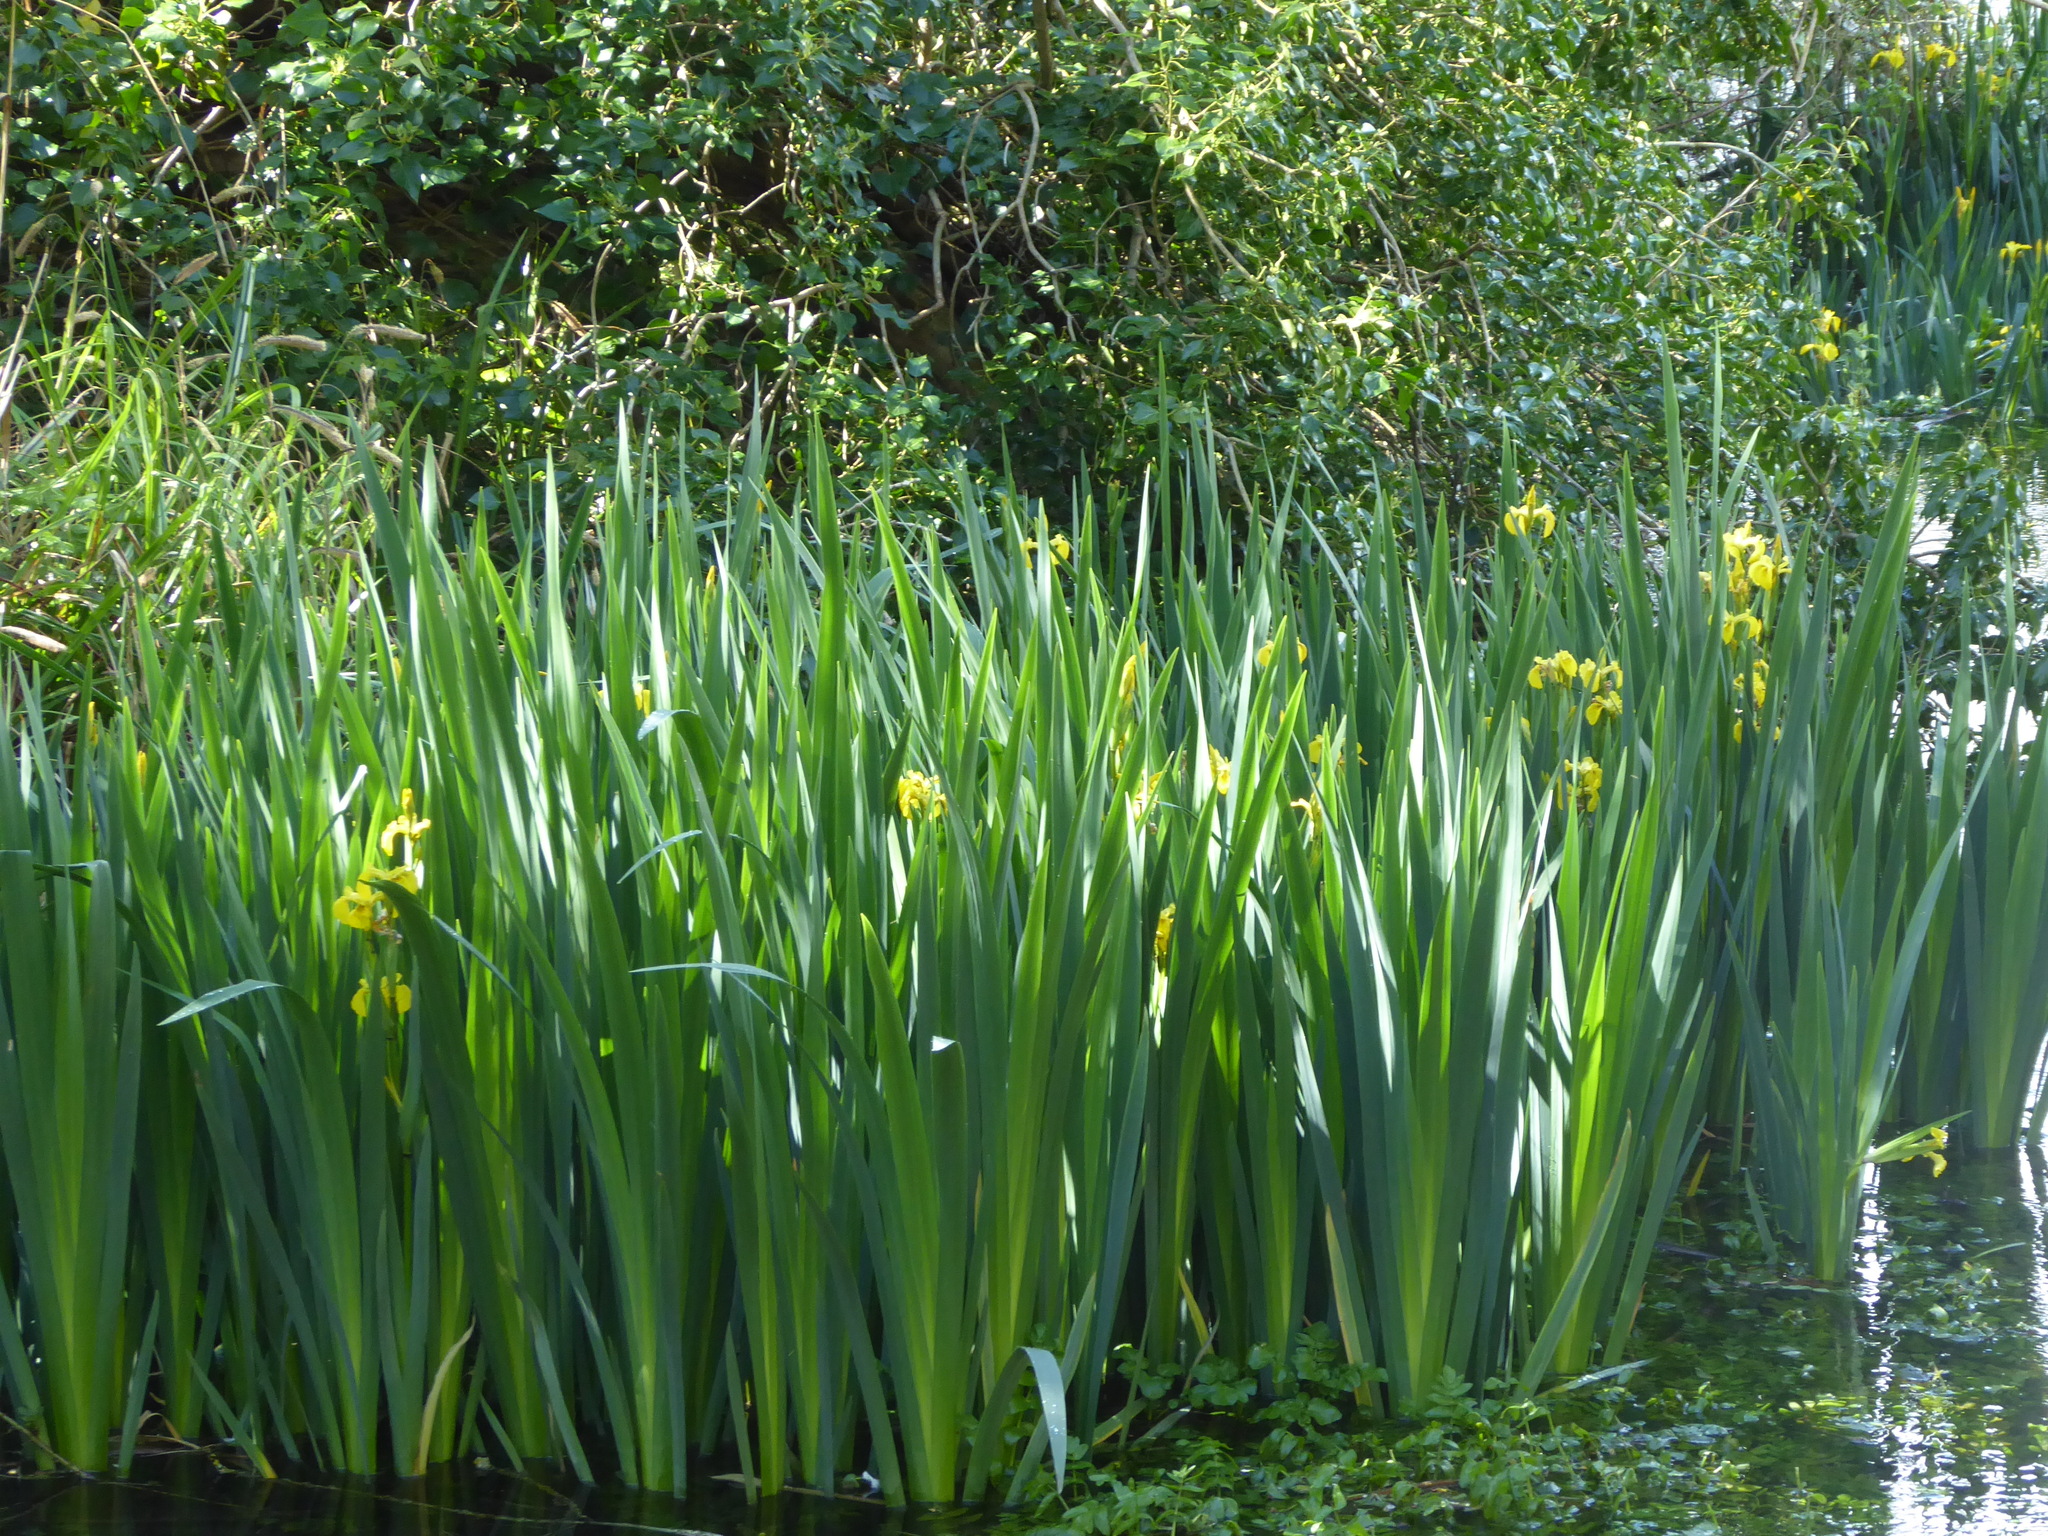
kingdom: Plantae
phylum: Tracheophyta
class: Liliopsida
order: Asparagales
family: Iridaceae
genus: Iris
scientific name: Iris pseudacorus
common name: Yellow flag
